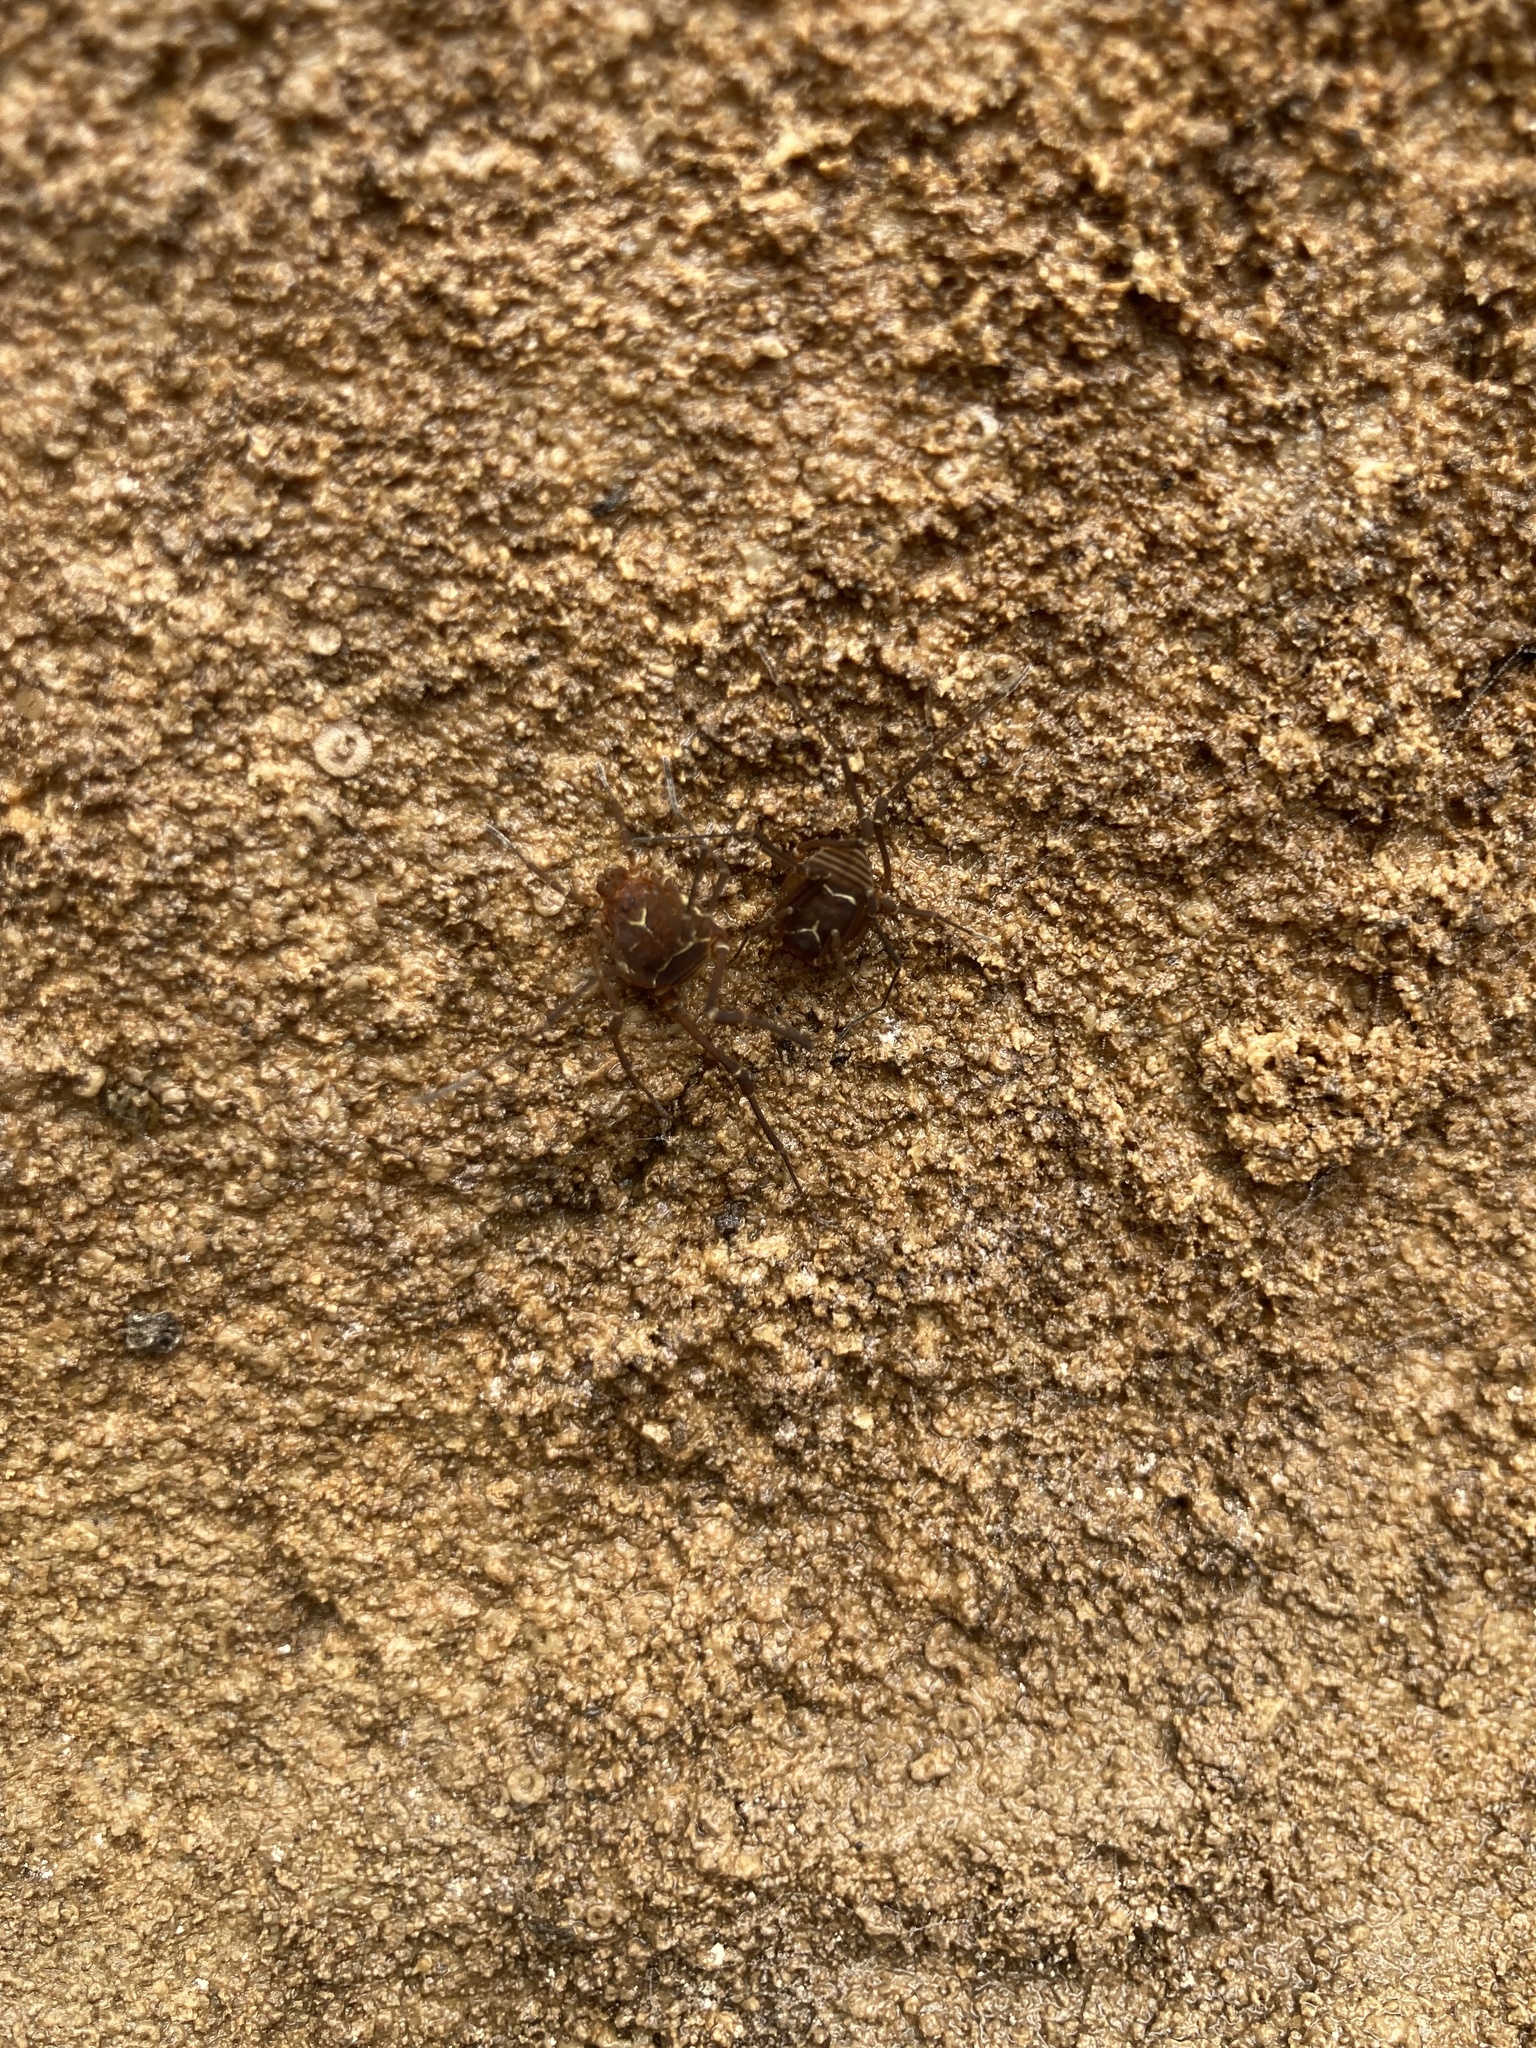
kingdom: Animalia
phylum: Arthropoda
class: Arachnida
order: Opiliones
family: Cosmetidae
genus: Libitioides
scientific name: Libitioides sayi
